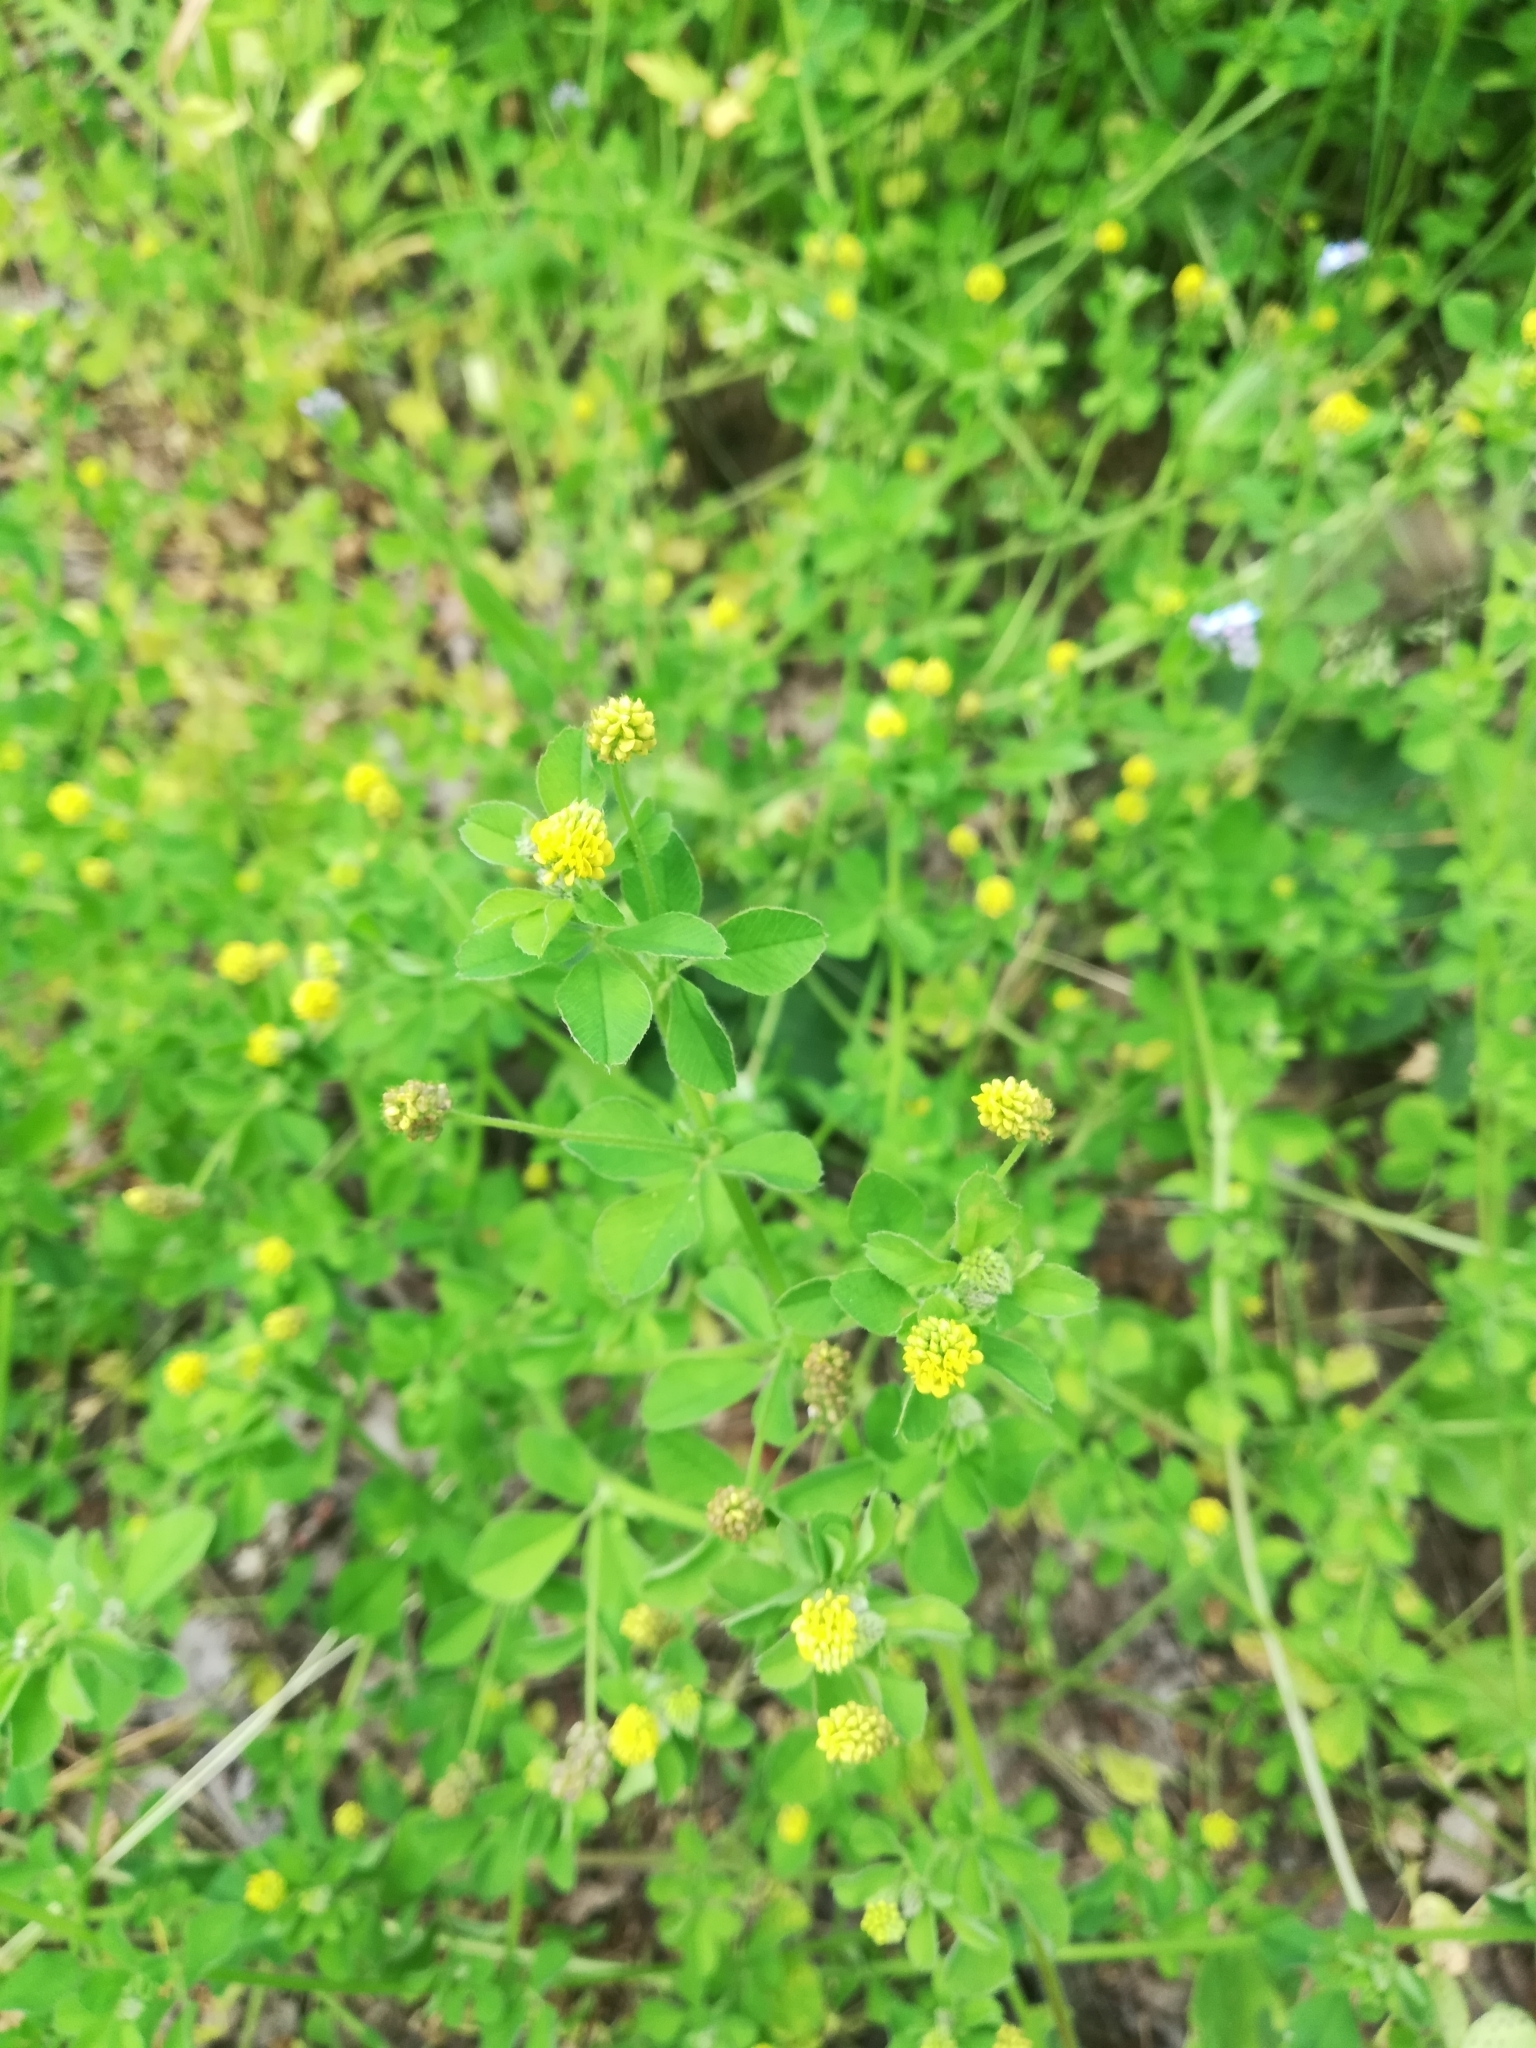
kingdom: Plantae
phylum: Tracheophyta
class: Magnoliopsida
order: Fabales
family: Fabaceae
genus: Medicago
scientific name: Medicago lupulina
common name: Black medick
